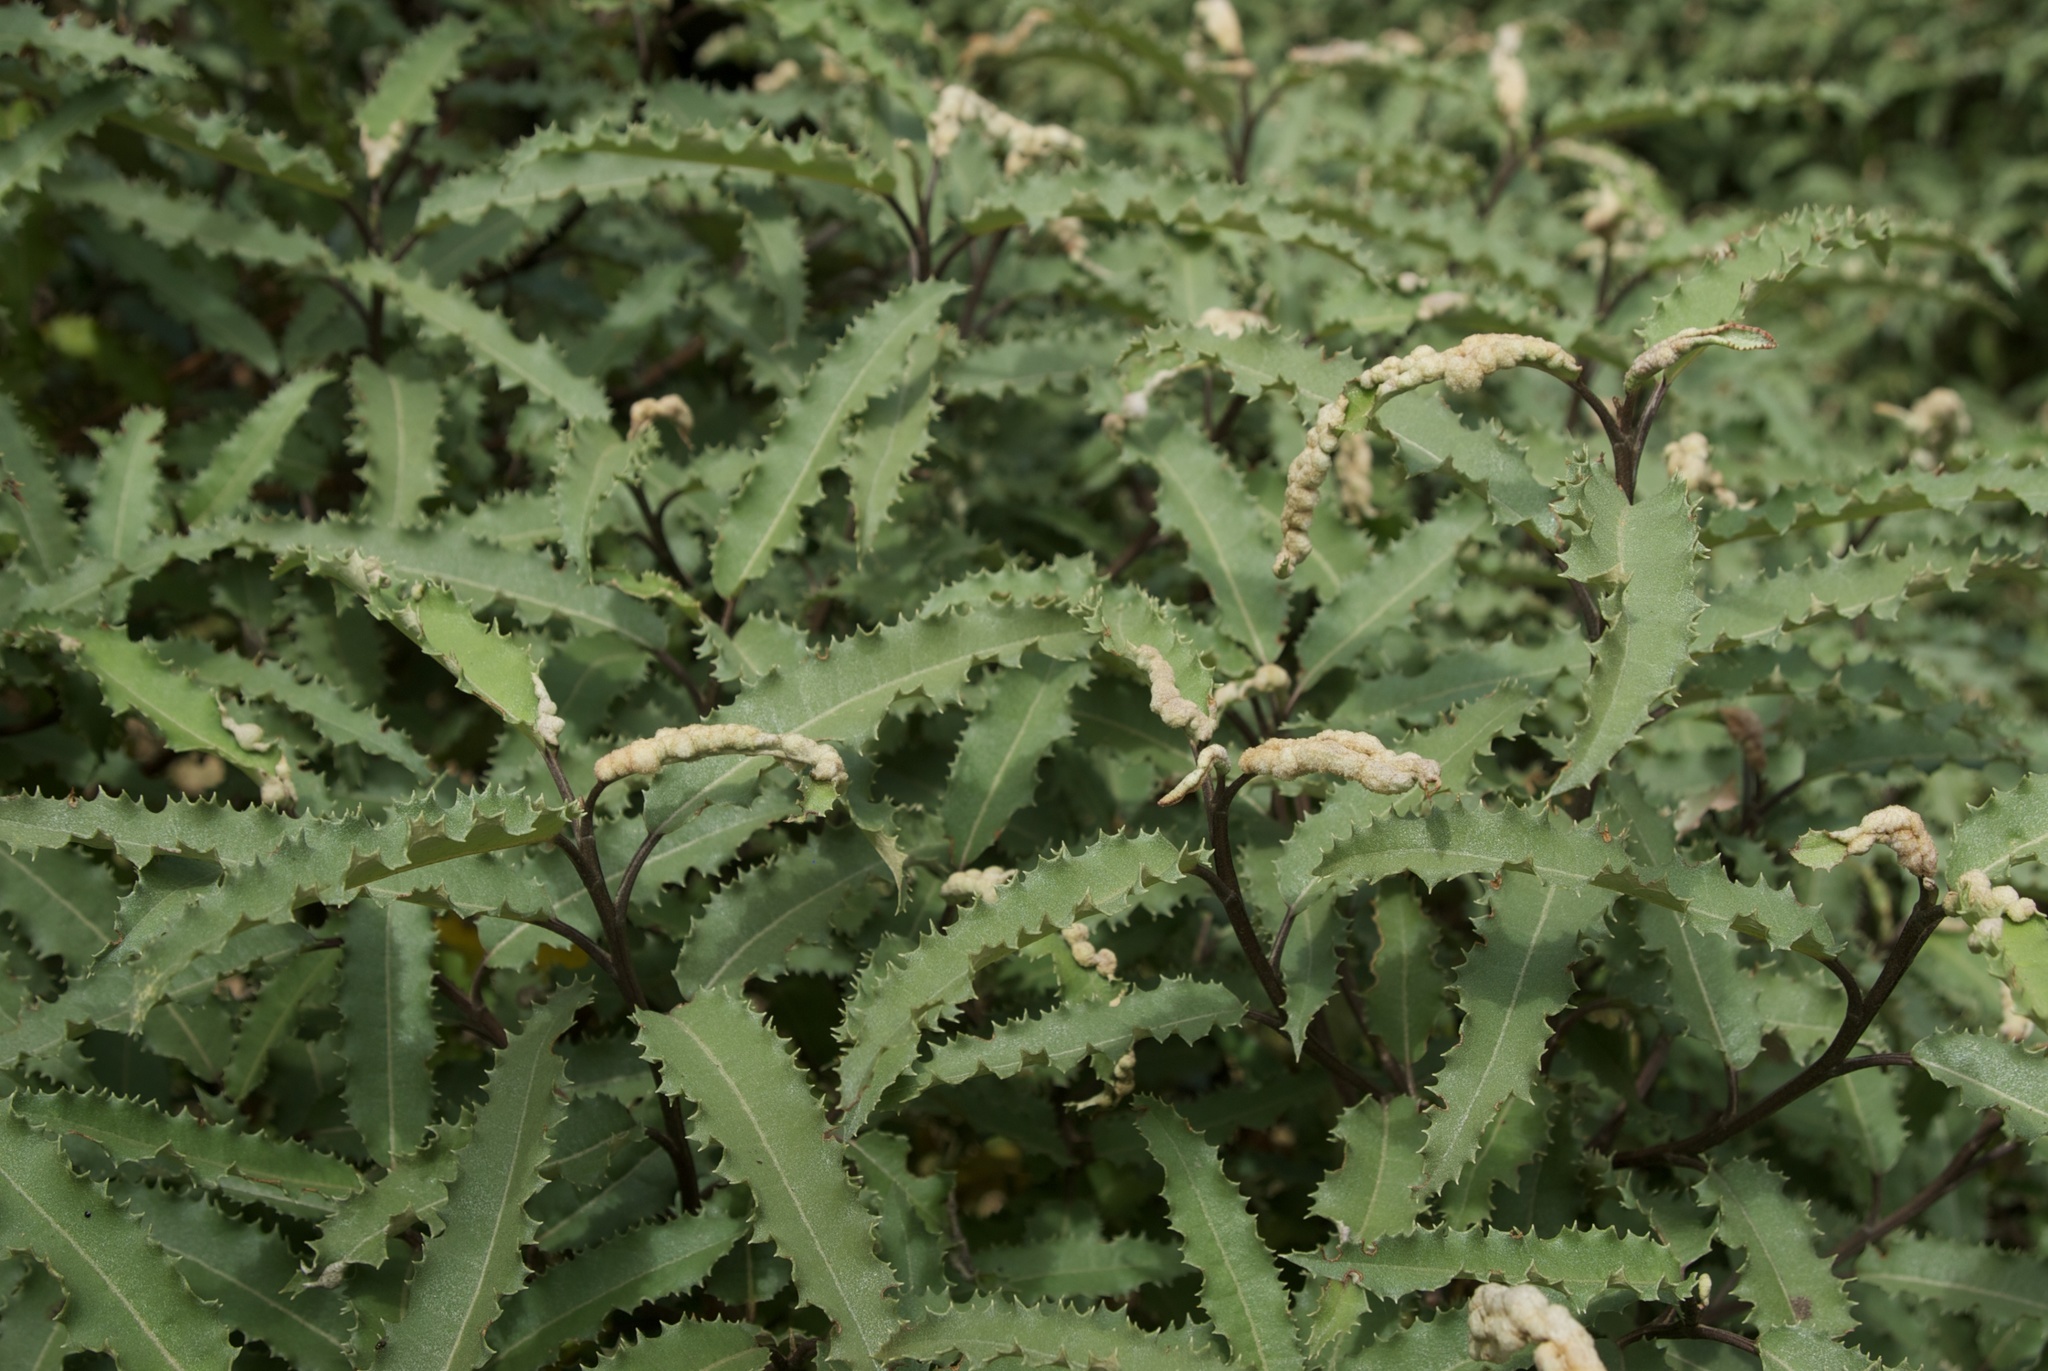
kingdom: Plantae
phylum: Tracheophyta
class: Magnoliopsida
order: Asterales
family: Asteraceae
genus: Olearia
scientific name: Olearia ilicifolia
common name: Maori-holly
